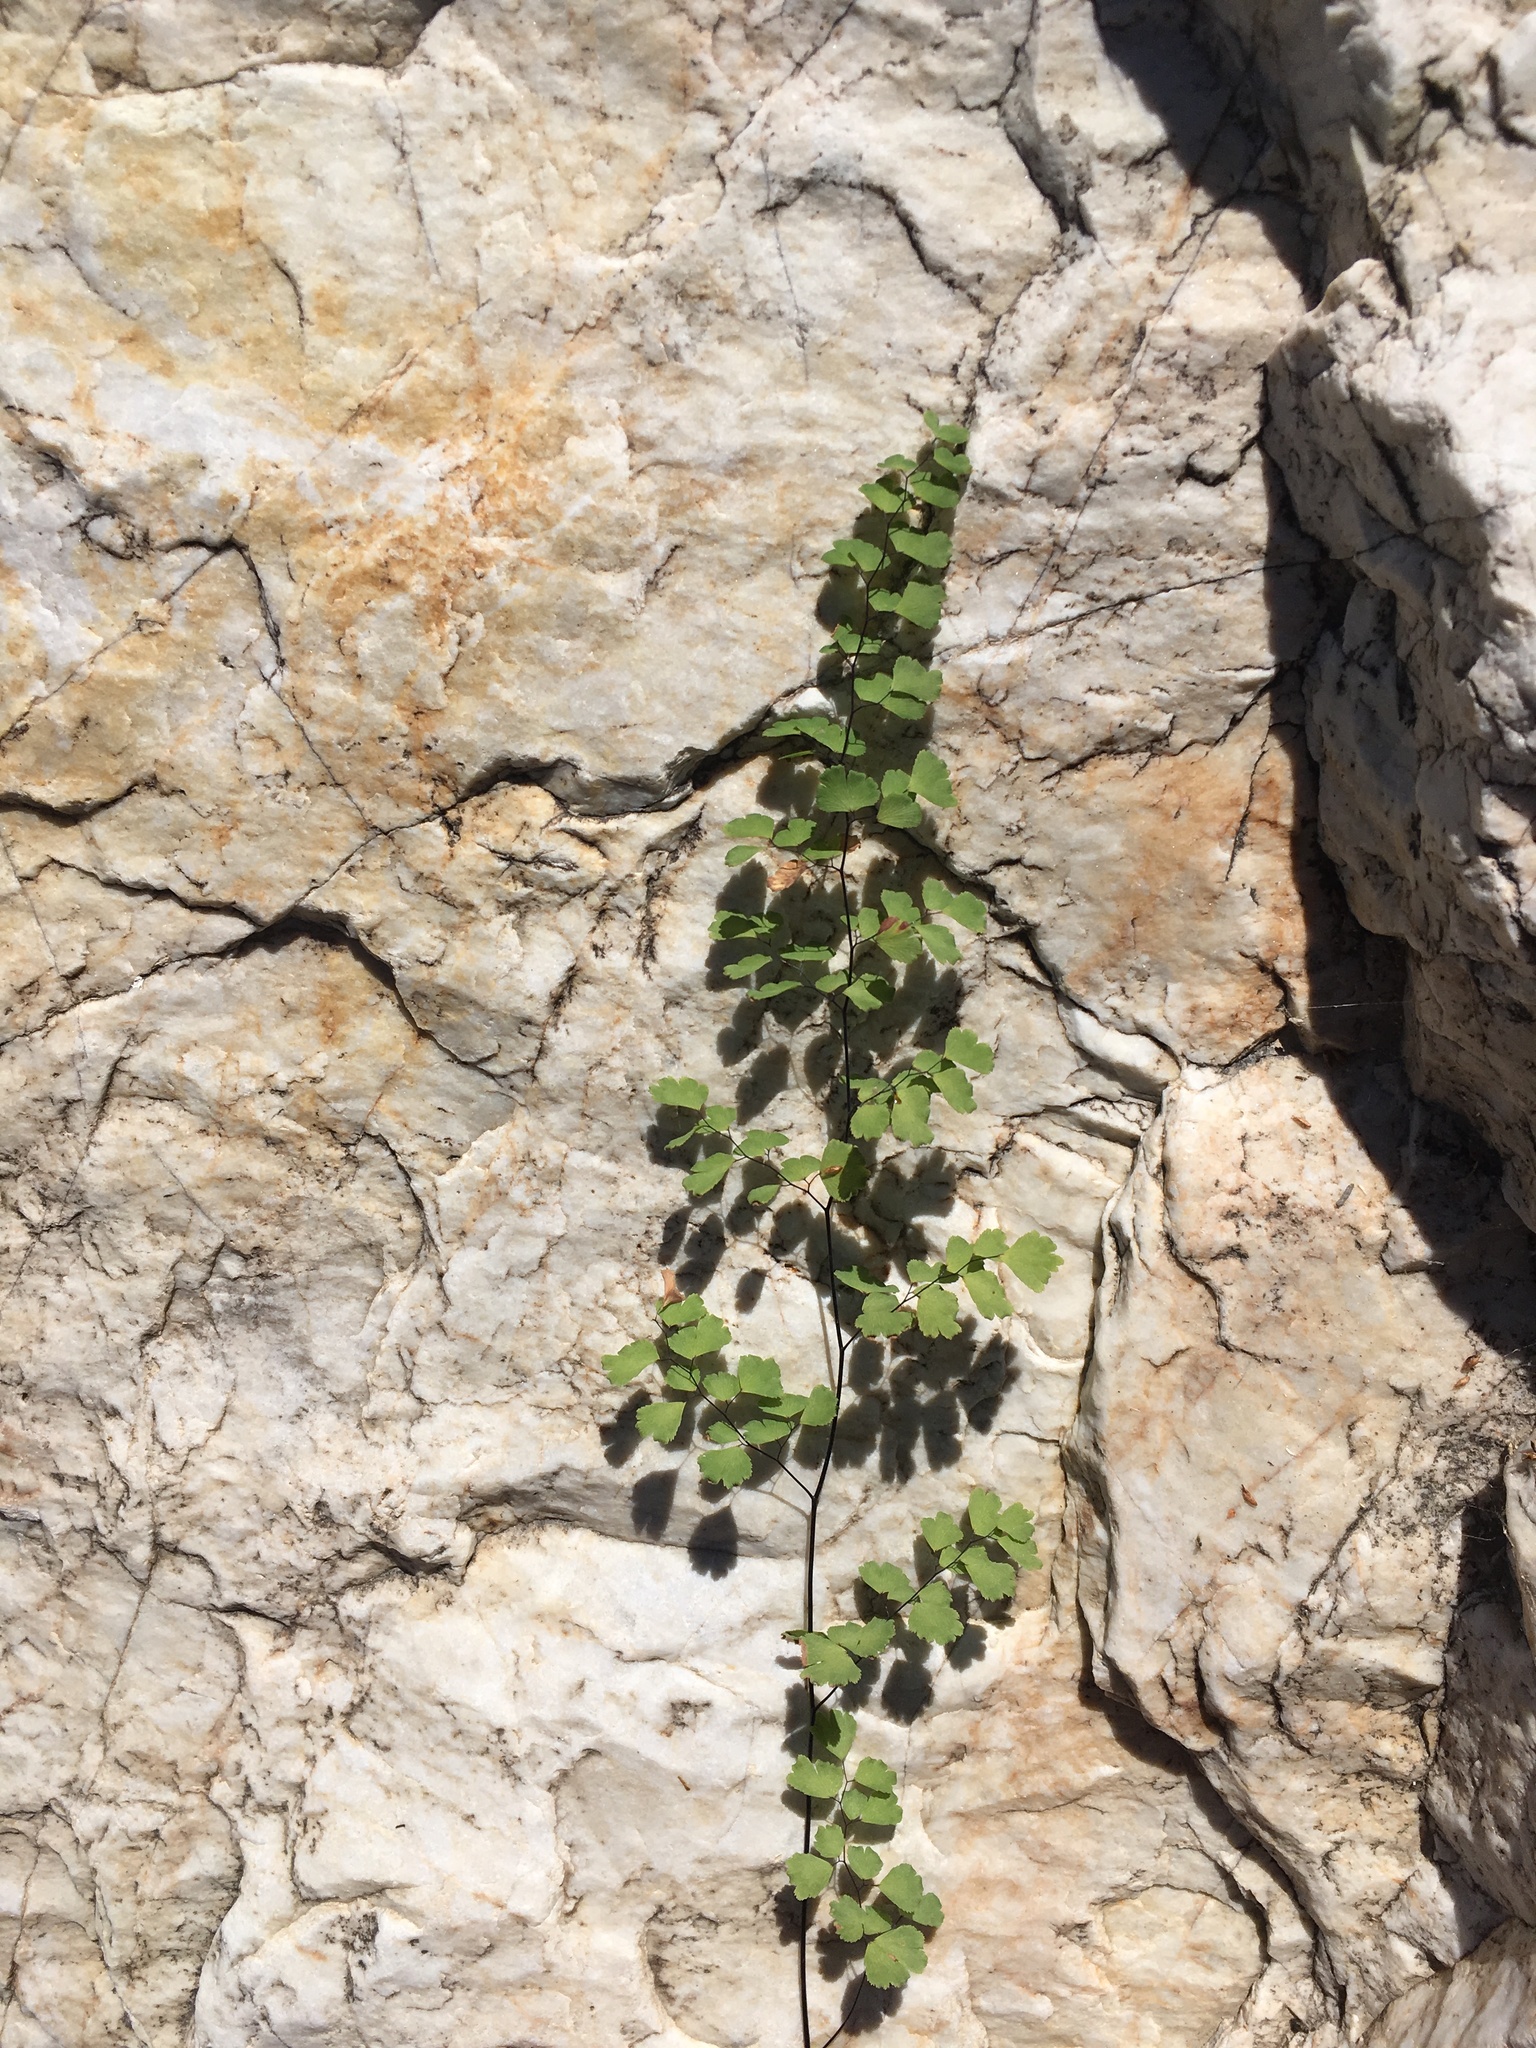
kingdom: Plantae
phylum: Tracheophyta
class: Polypodiopsida
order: Polypodiales
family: Pteridaceae
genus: Adiantum
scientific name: Adiantum capillus-veneris
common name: Maidenhair fern
